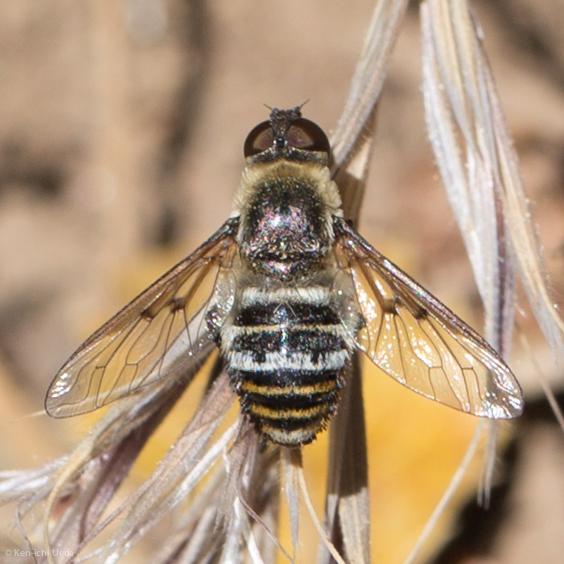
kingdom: Animalia
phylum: Arthropoda
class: Insecta
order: Diptera
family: Bombyliidae
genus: Hemipenthes
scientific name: Hemipenthes inops
